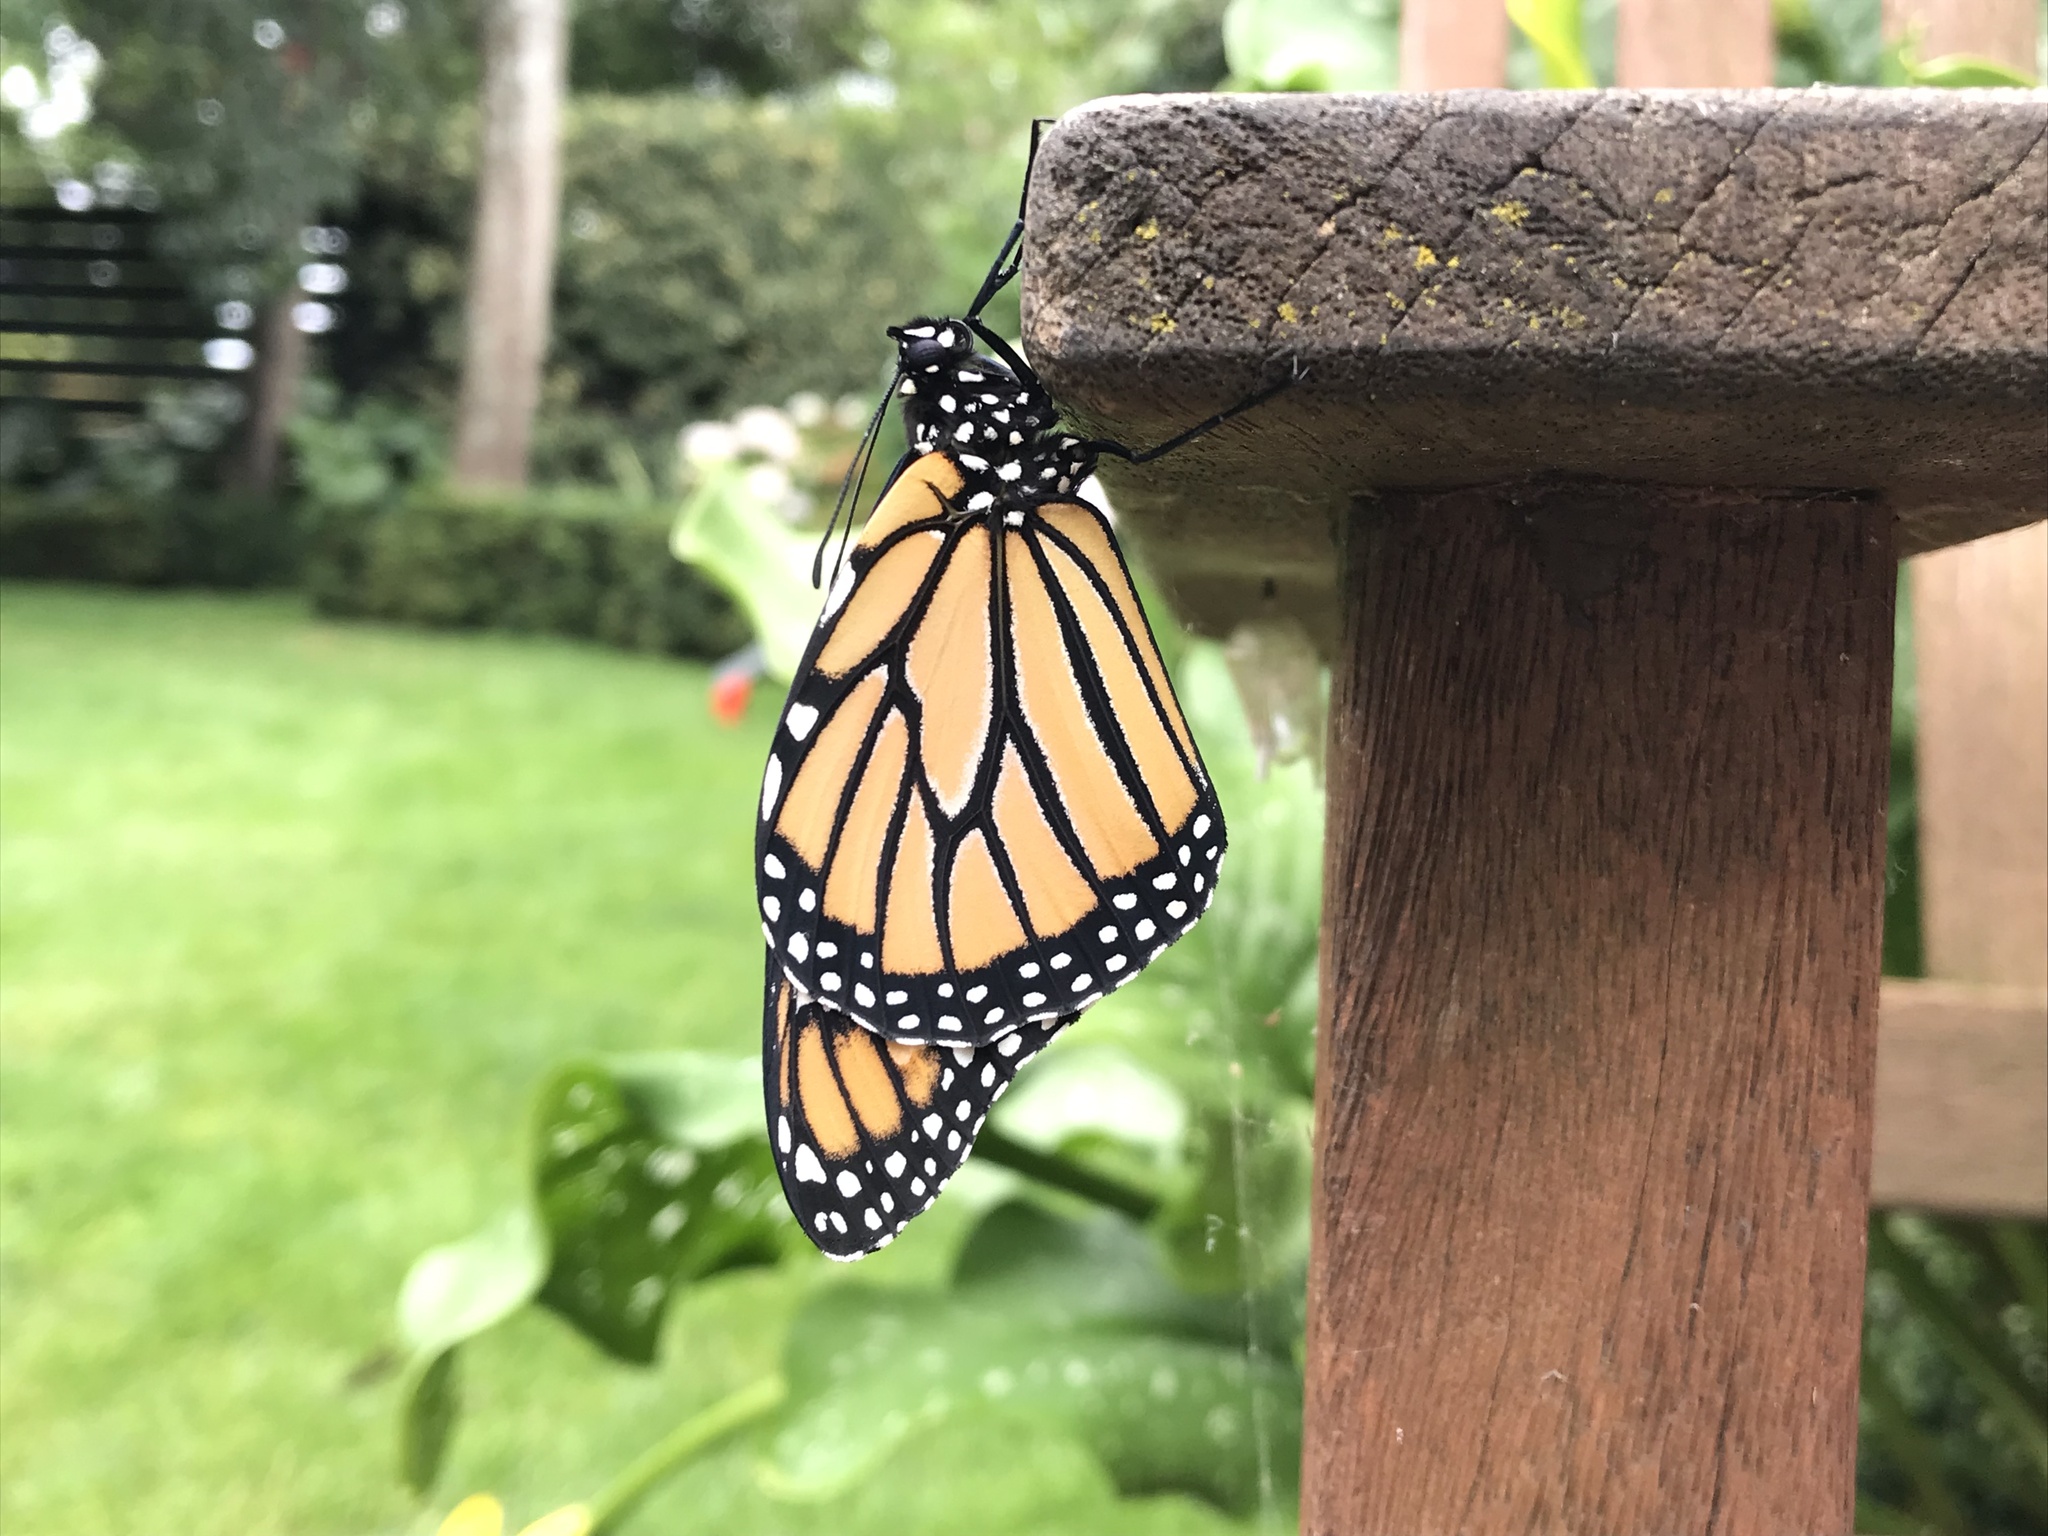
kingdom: Animalia
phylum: Arthropoda
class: Insecta
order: Lepidoptera
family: Nymphalidae
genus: Danaus
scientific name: Danaus plexippus
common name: Monarch
